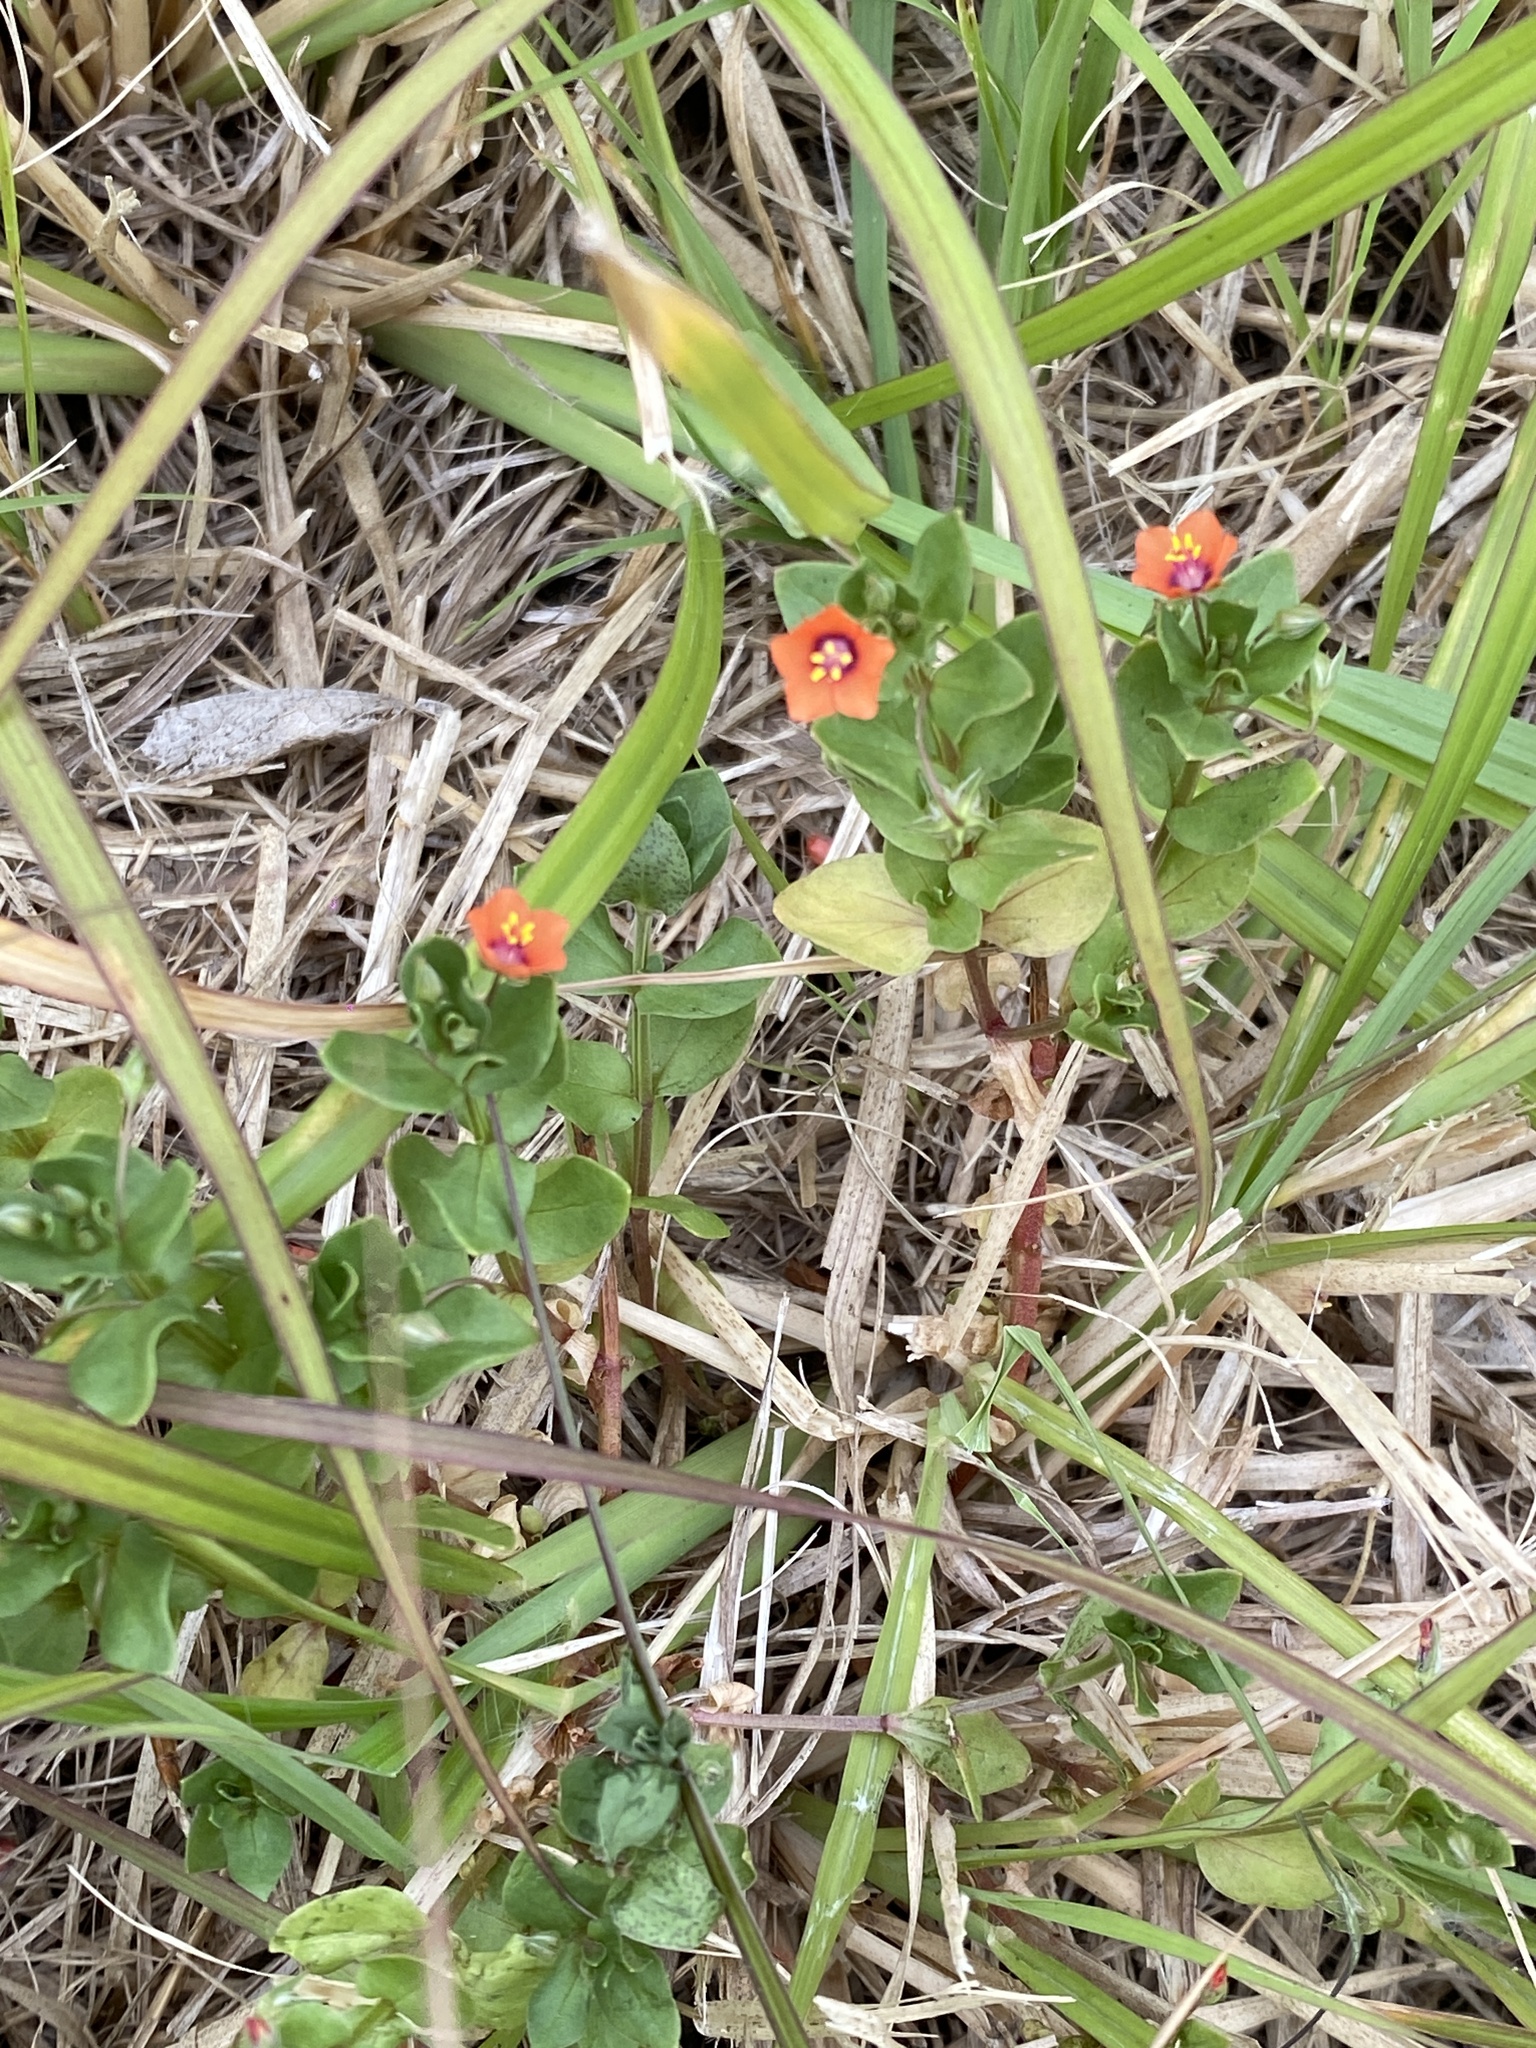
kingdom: Plantae
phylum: Tracheophyta
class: Magnoliopsida
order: Ericales
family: Primulaceae
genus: Lysimachia
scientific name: Lysimachia arvensis
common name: Scarlet pimpernel
